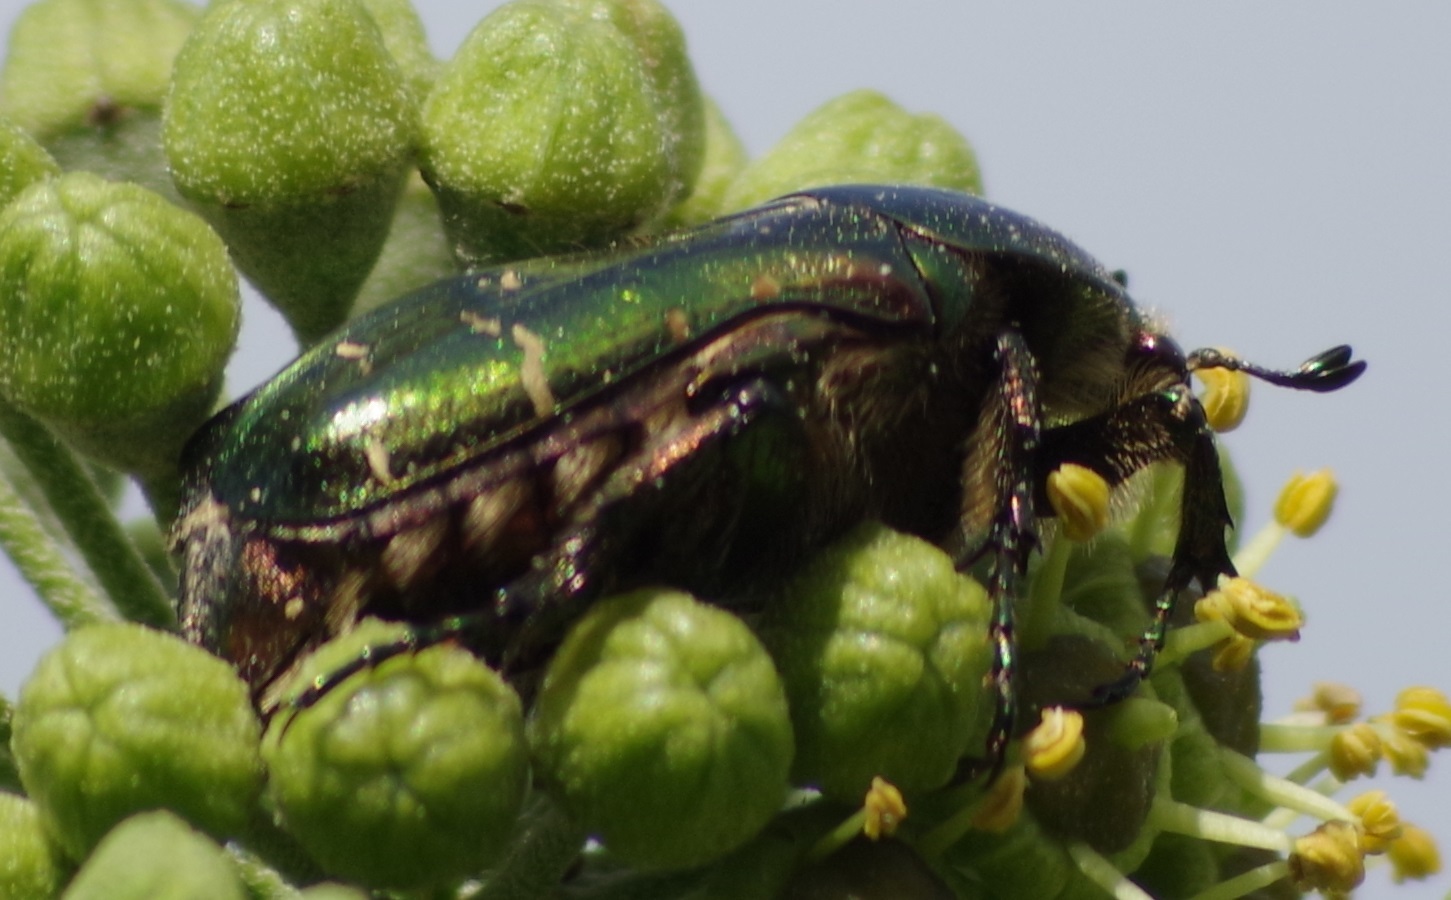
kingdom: Animalia
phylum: Arthropoda
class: Insecta
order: Coleoptera
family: Scarabaeidae
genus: Cetonia
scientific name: Cetonia aurata
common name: Rose chafer
